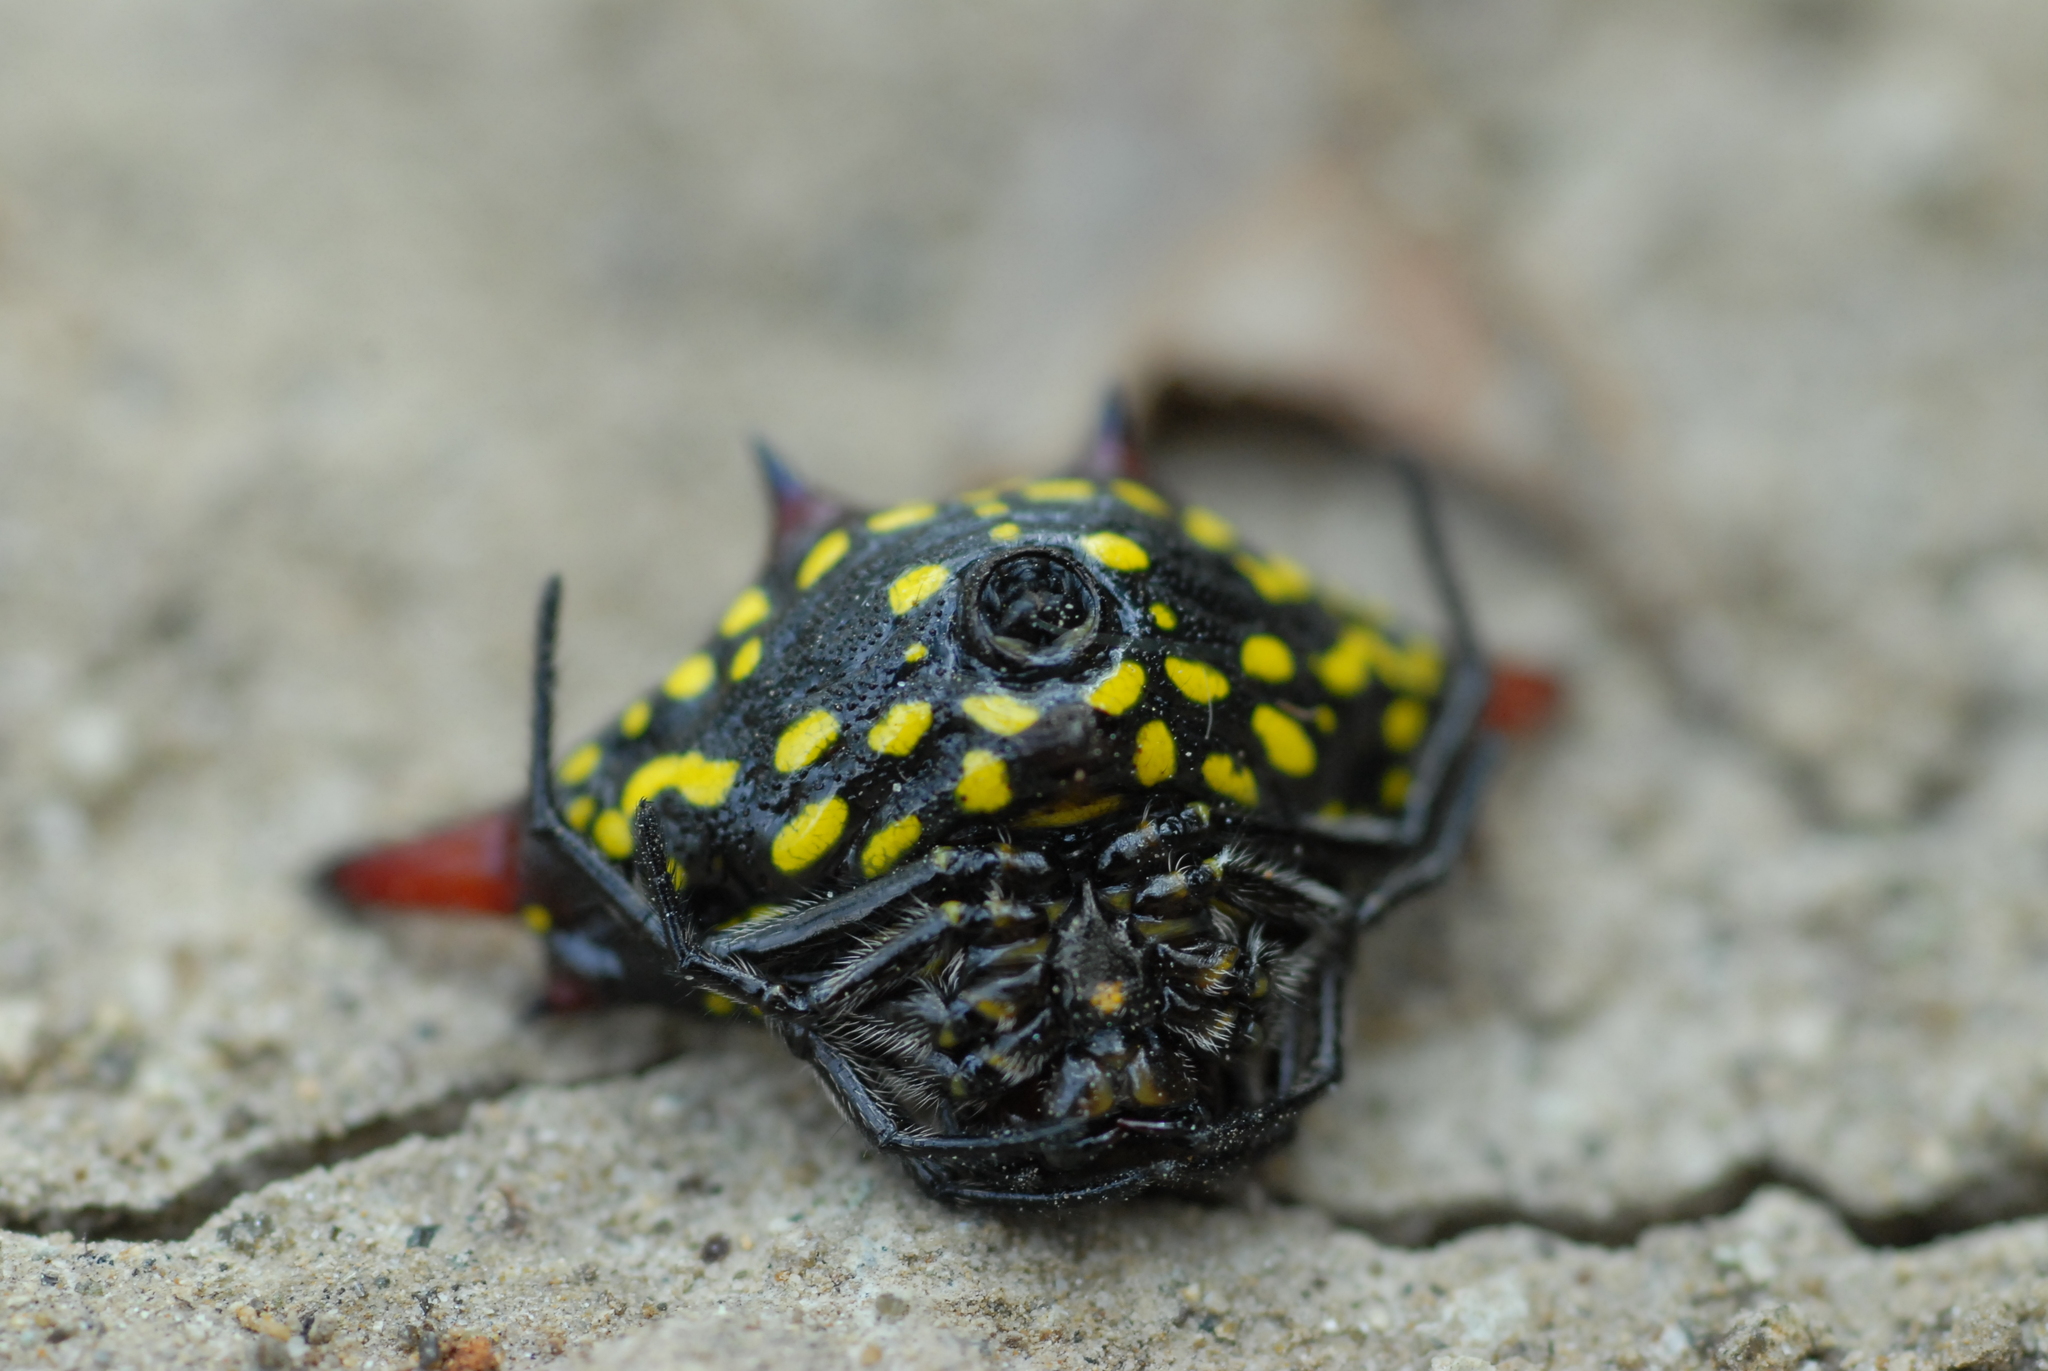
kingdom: Animalia
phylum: Arthropoda
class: Arachnida
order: Araneae
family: Araneidae
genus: Gasteracantha
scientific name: Gasteracantha sauteri
